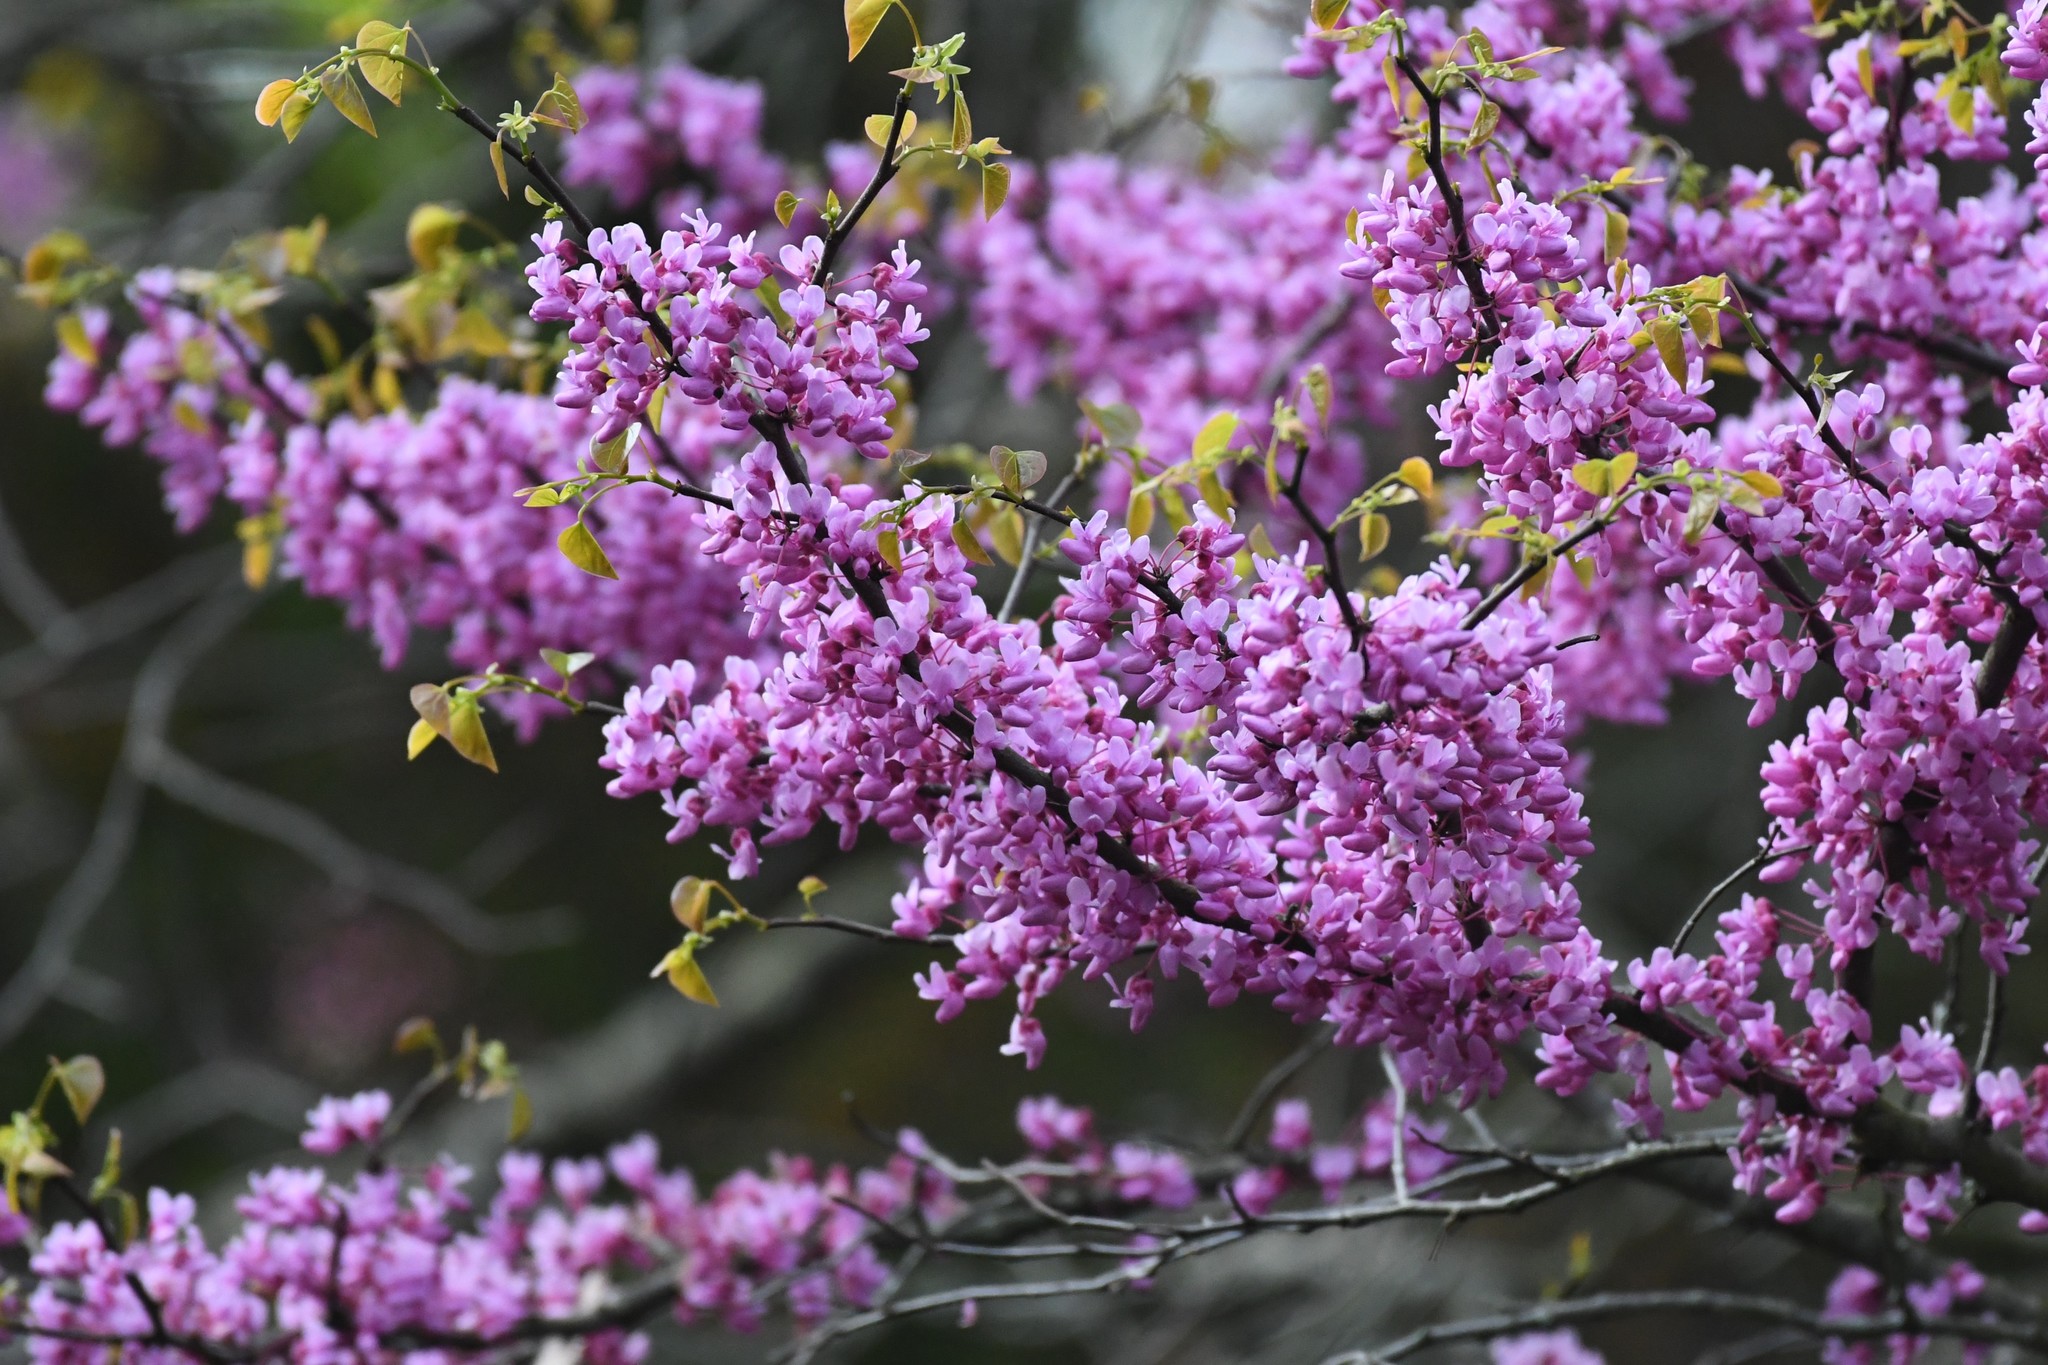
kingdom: Plantae
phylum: Tracheophyta
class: Magnoliopsida
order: Fabales
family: Fabaceae
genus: Cercis
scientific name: Cercis canadensis
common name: Eastern redbud
